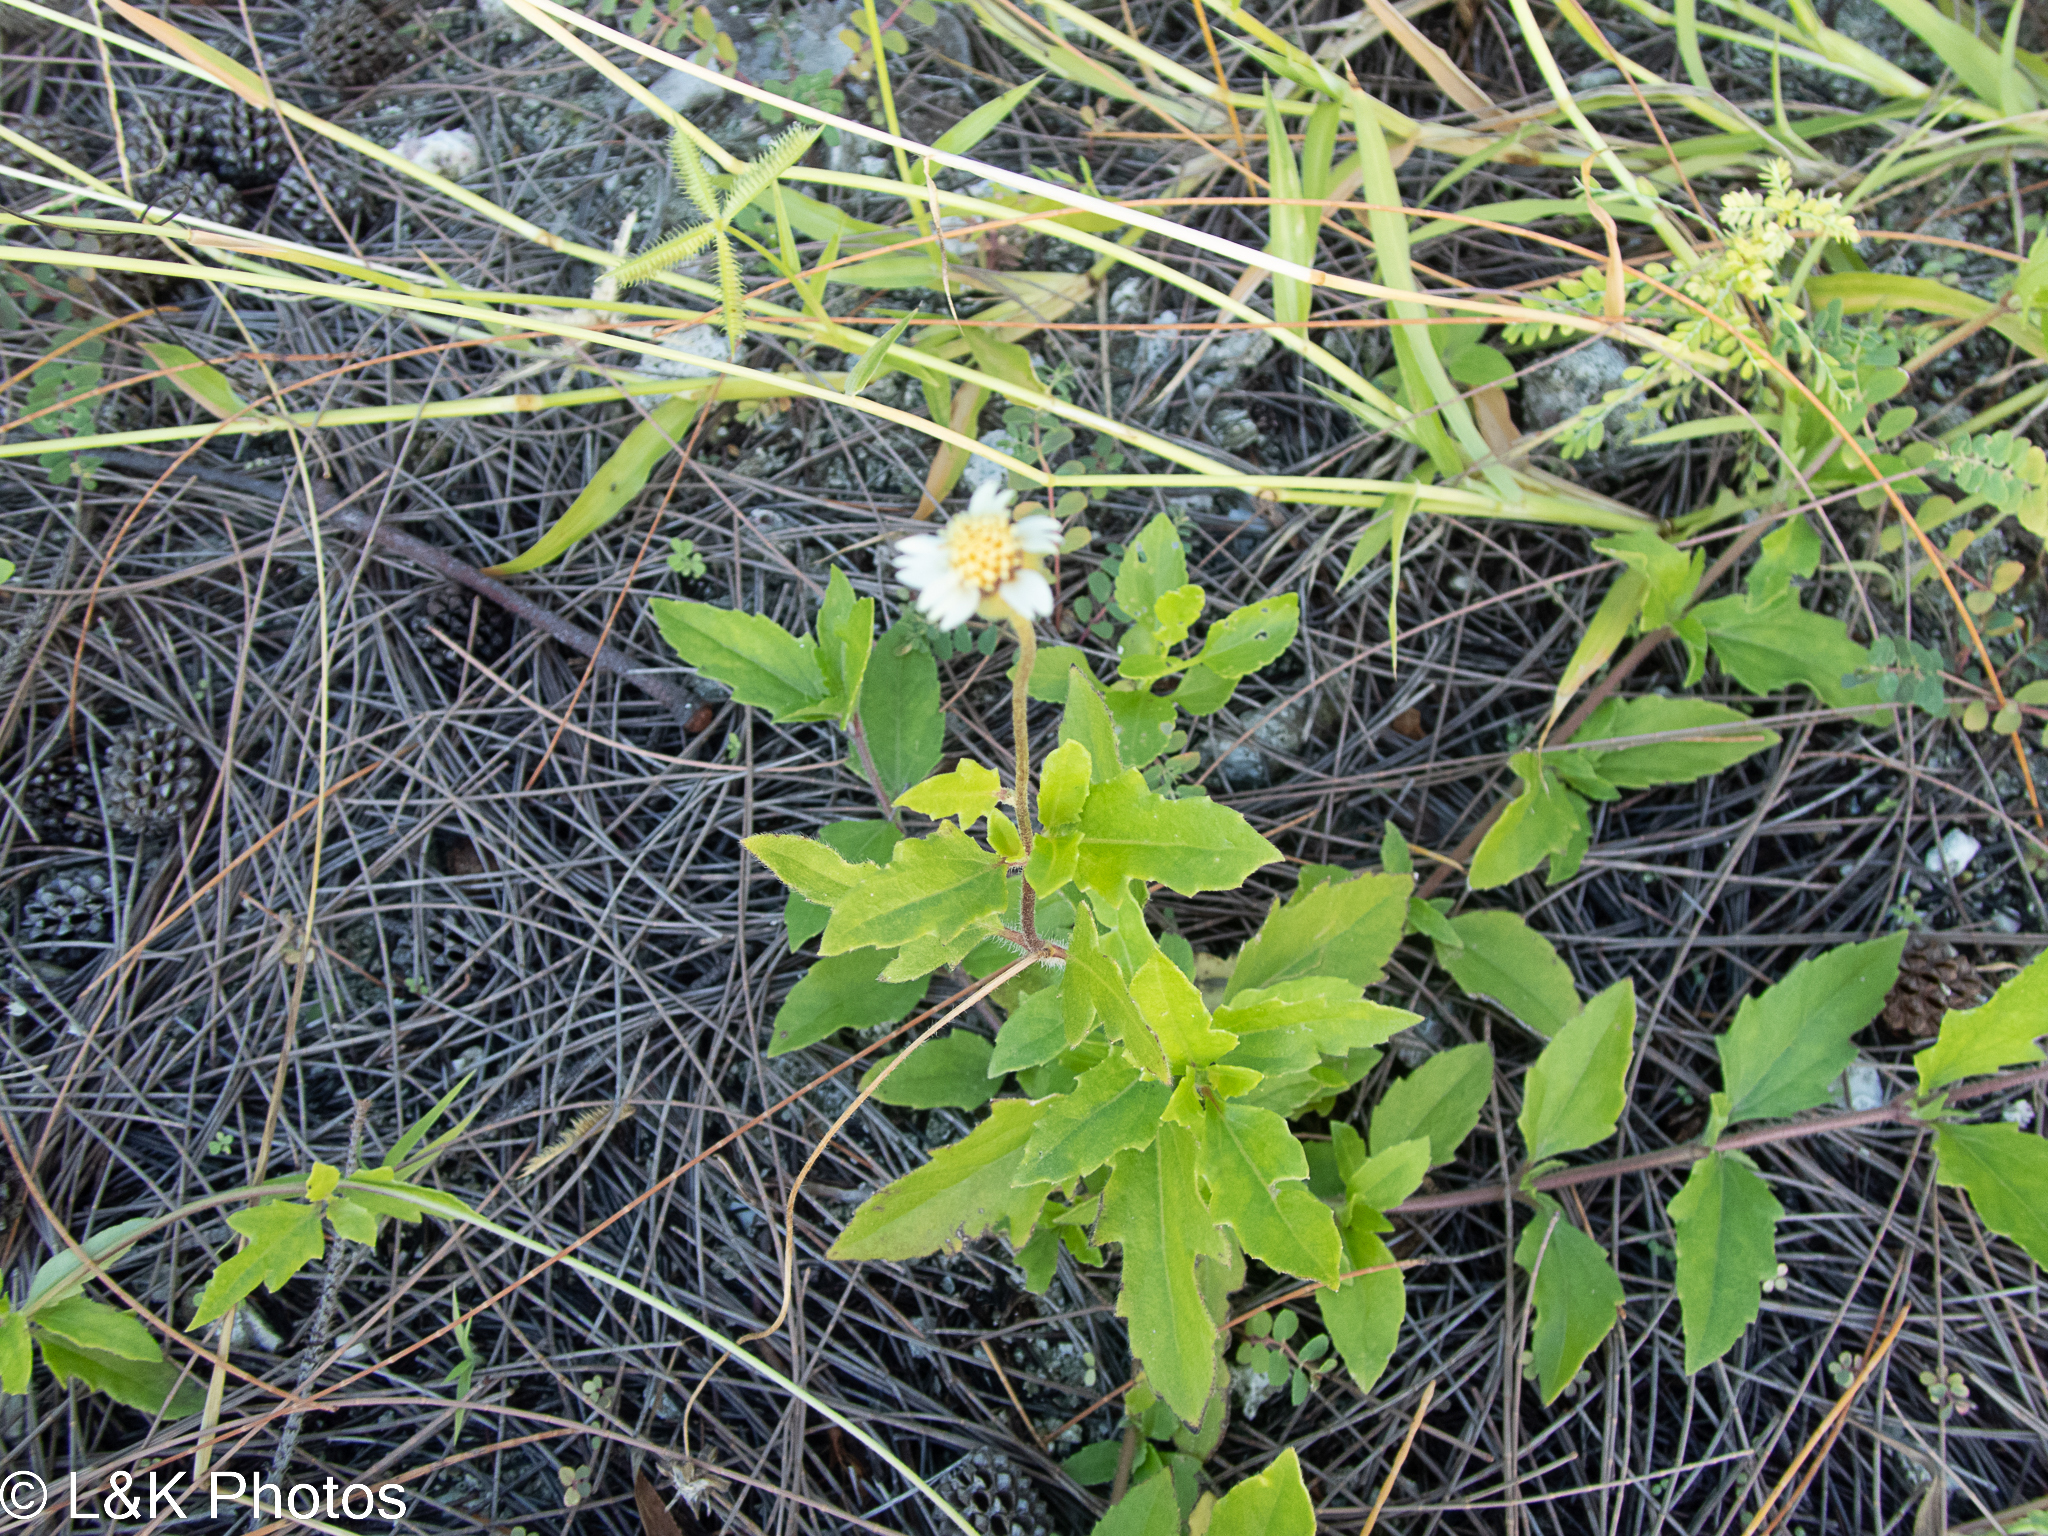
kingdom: Plantae
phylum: Tracheophyta
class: Magnoliopsida
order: Asterales
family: Asteraceae
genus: Tridax
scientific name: Tridax procumbens
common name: Coatbuttons
